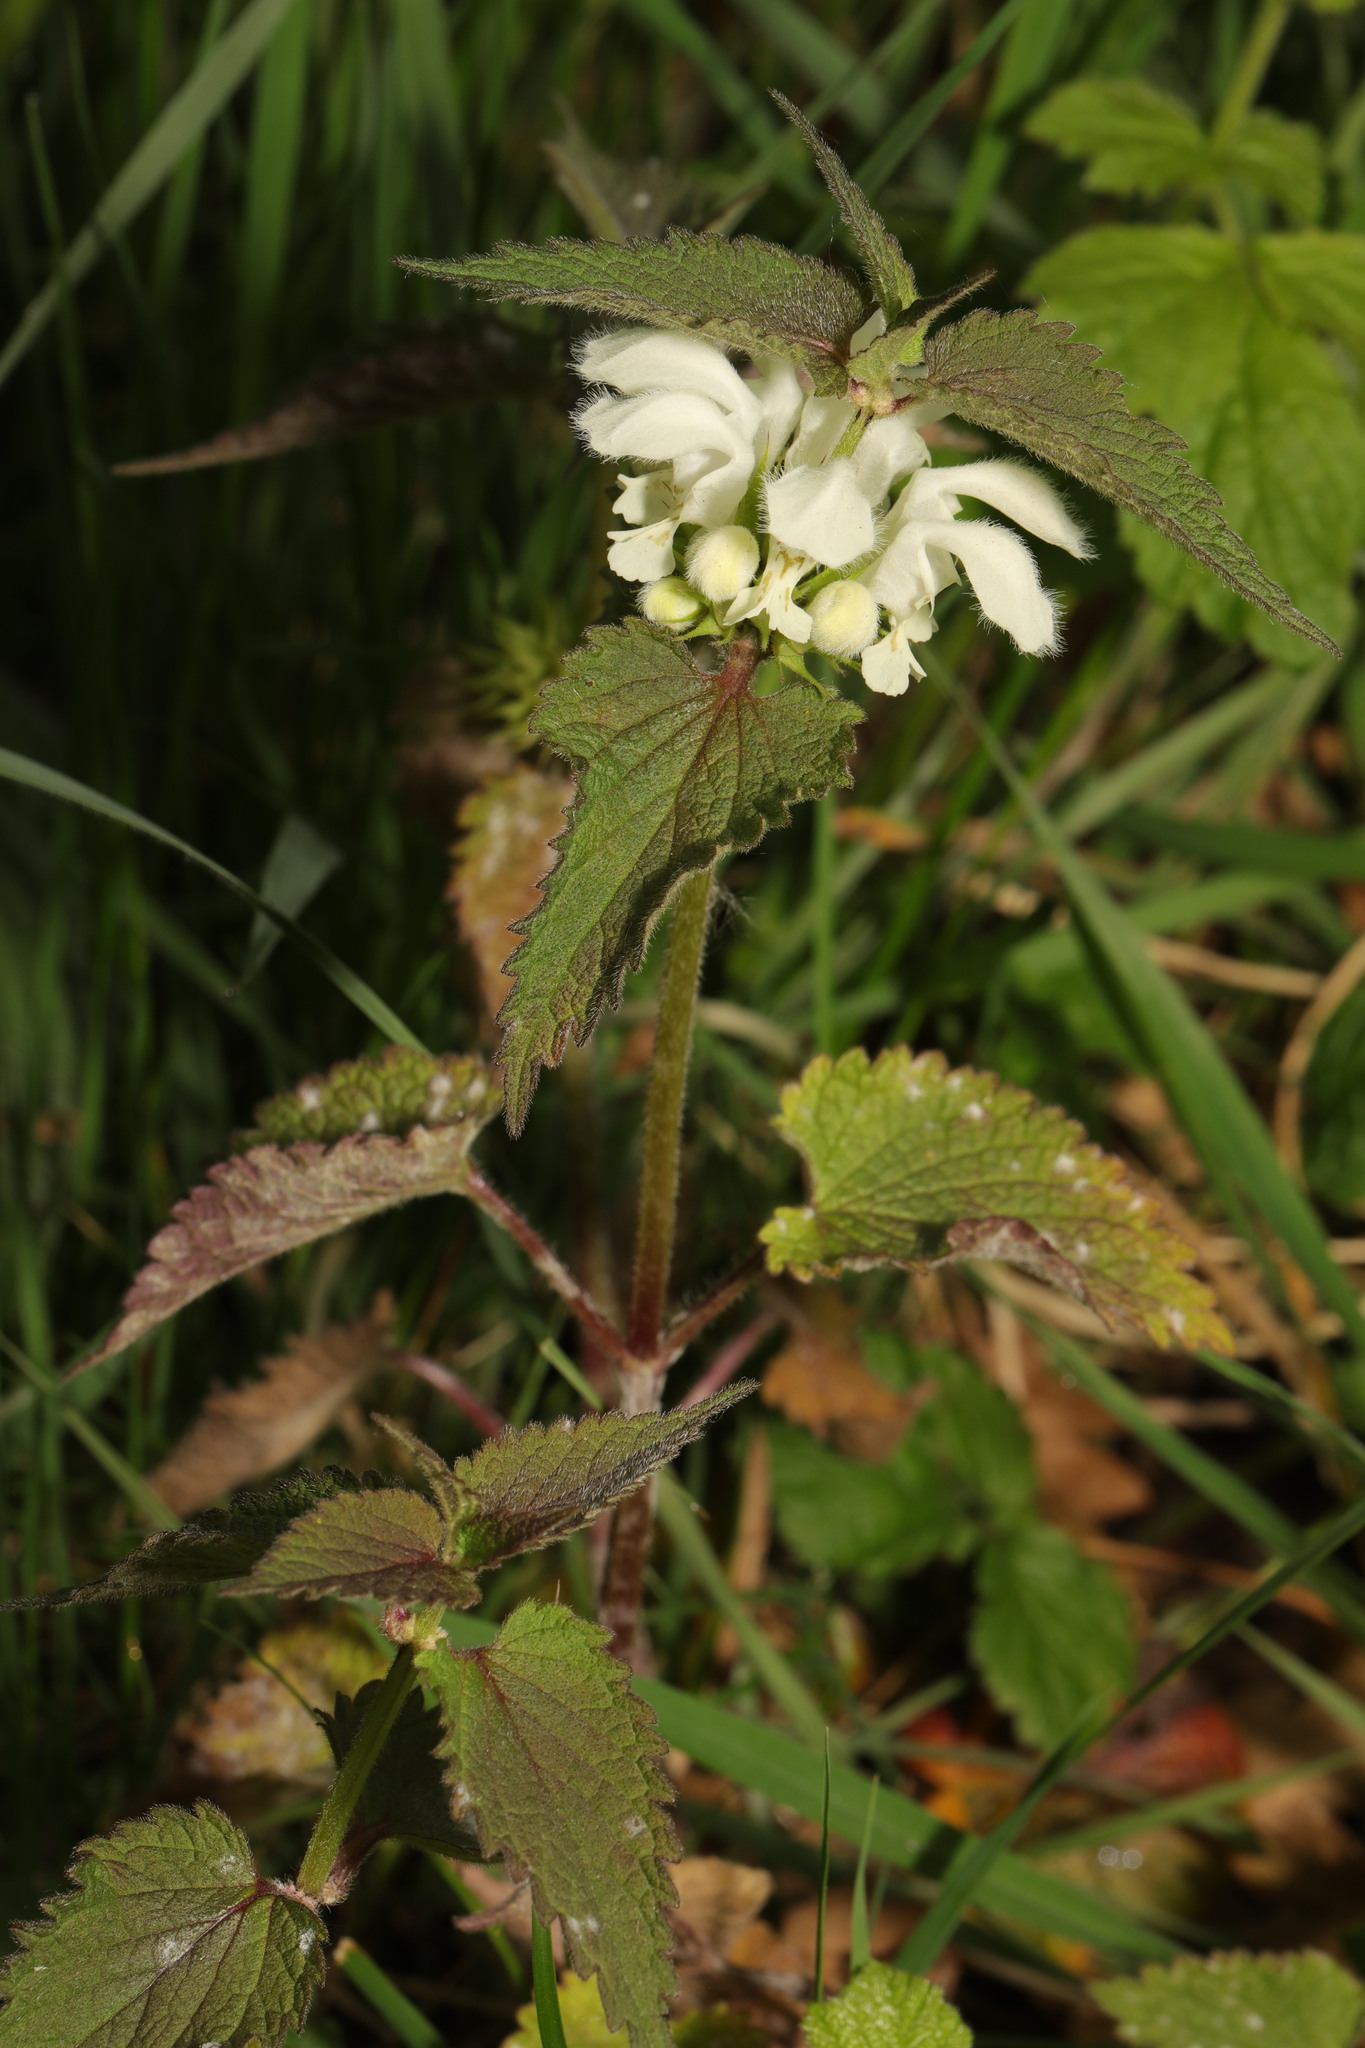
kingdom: Plantae
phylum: Tracheophyta
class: Magnoliopsida
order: Lamiales
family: Lamiaceae
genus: Lamium
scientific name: Lamium album
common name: White dead-nettle
